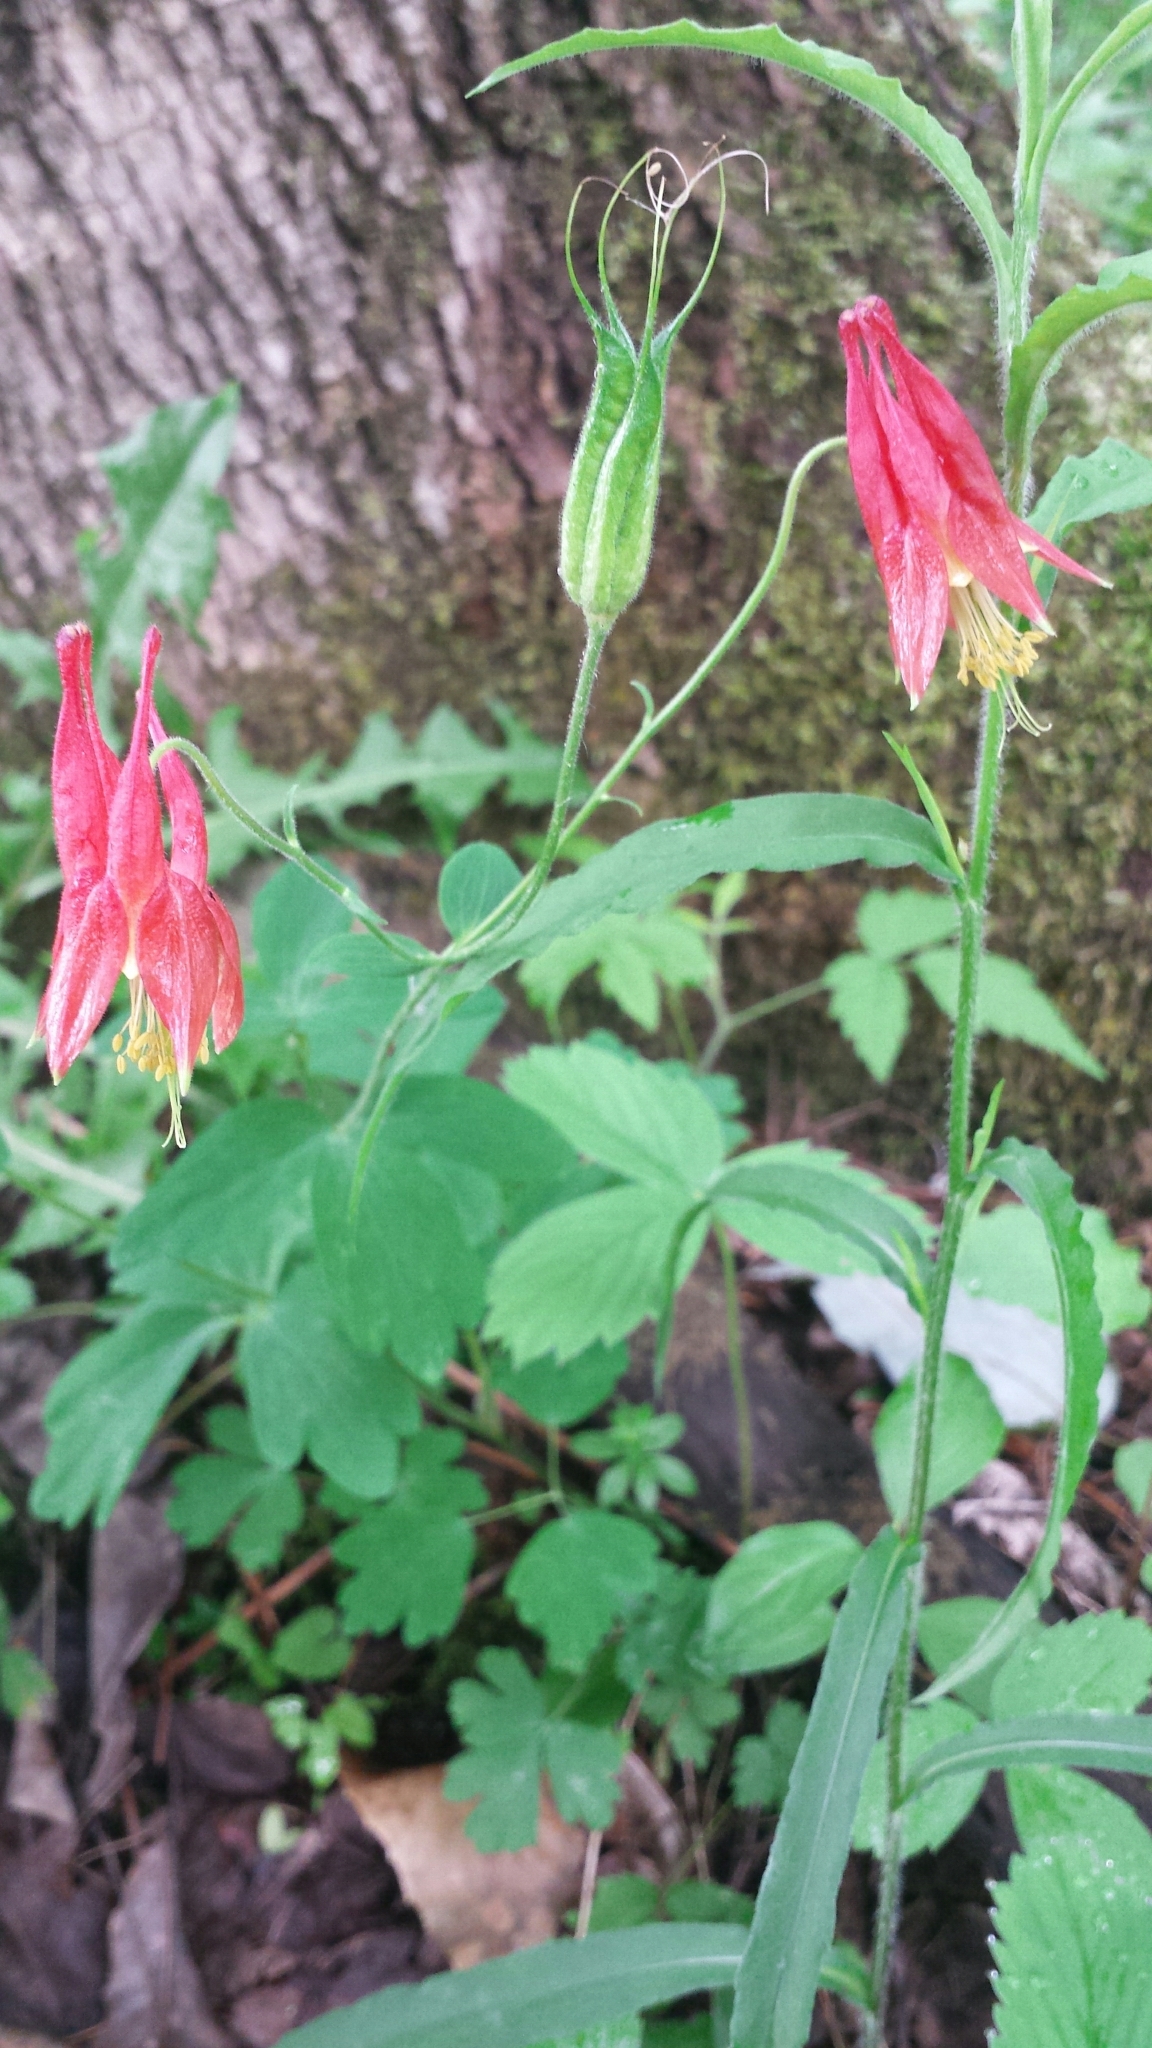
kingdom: Plantae
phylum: Tracheophyta
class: Magnoliopsida
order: Ranunculales
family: Ranunculaceae
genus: Aquilegia
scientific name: Aquilegia canadensis
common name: American columbine
